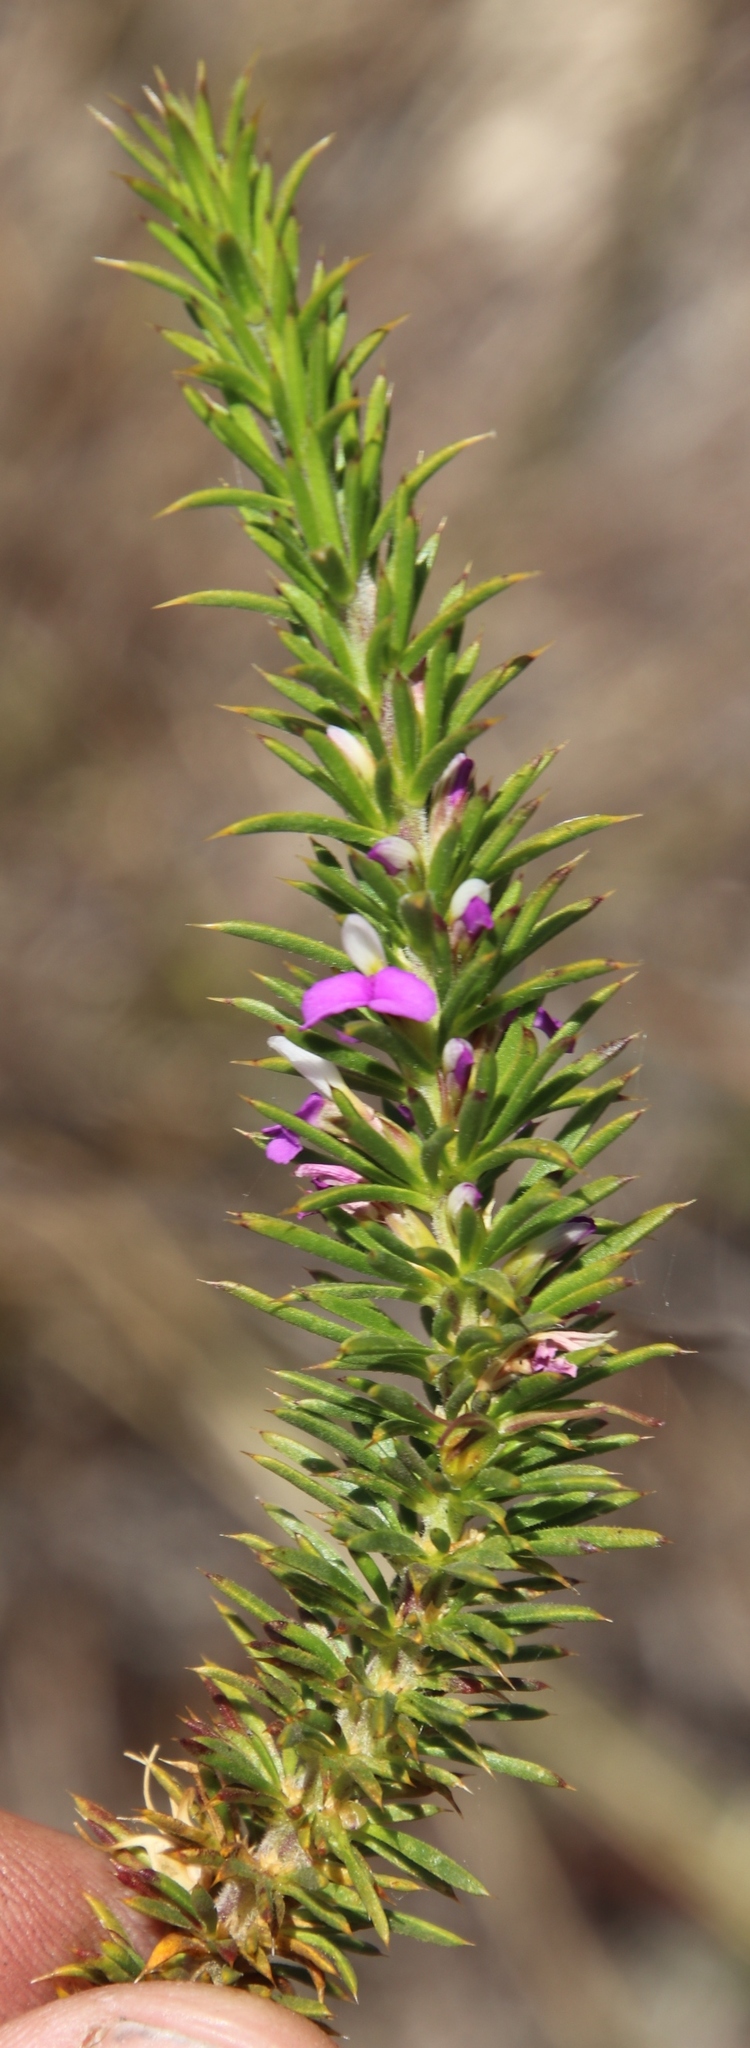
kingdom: Plantae
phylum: Tracheophyta
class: Magnoliopsida
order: Fabales
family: Polygalaceae
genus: Muraltia
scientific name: Muraltia heisteria
